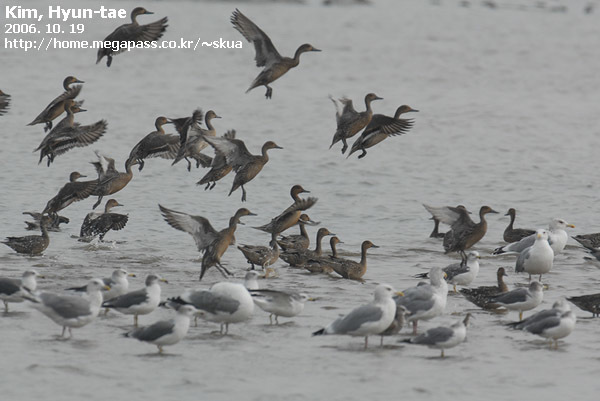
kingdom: Animalia
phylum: Chordata
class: Aves
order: Anseriformes
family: Anatidae
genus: Anas
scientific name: Anas acuta
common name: Northern pintail
